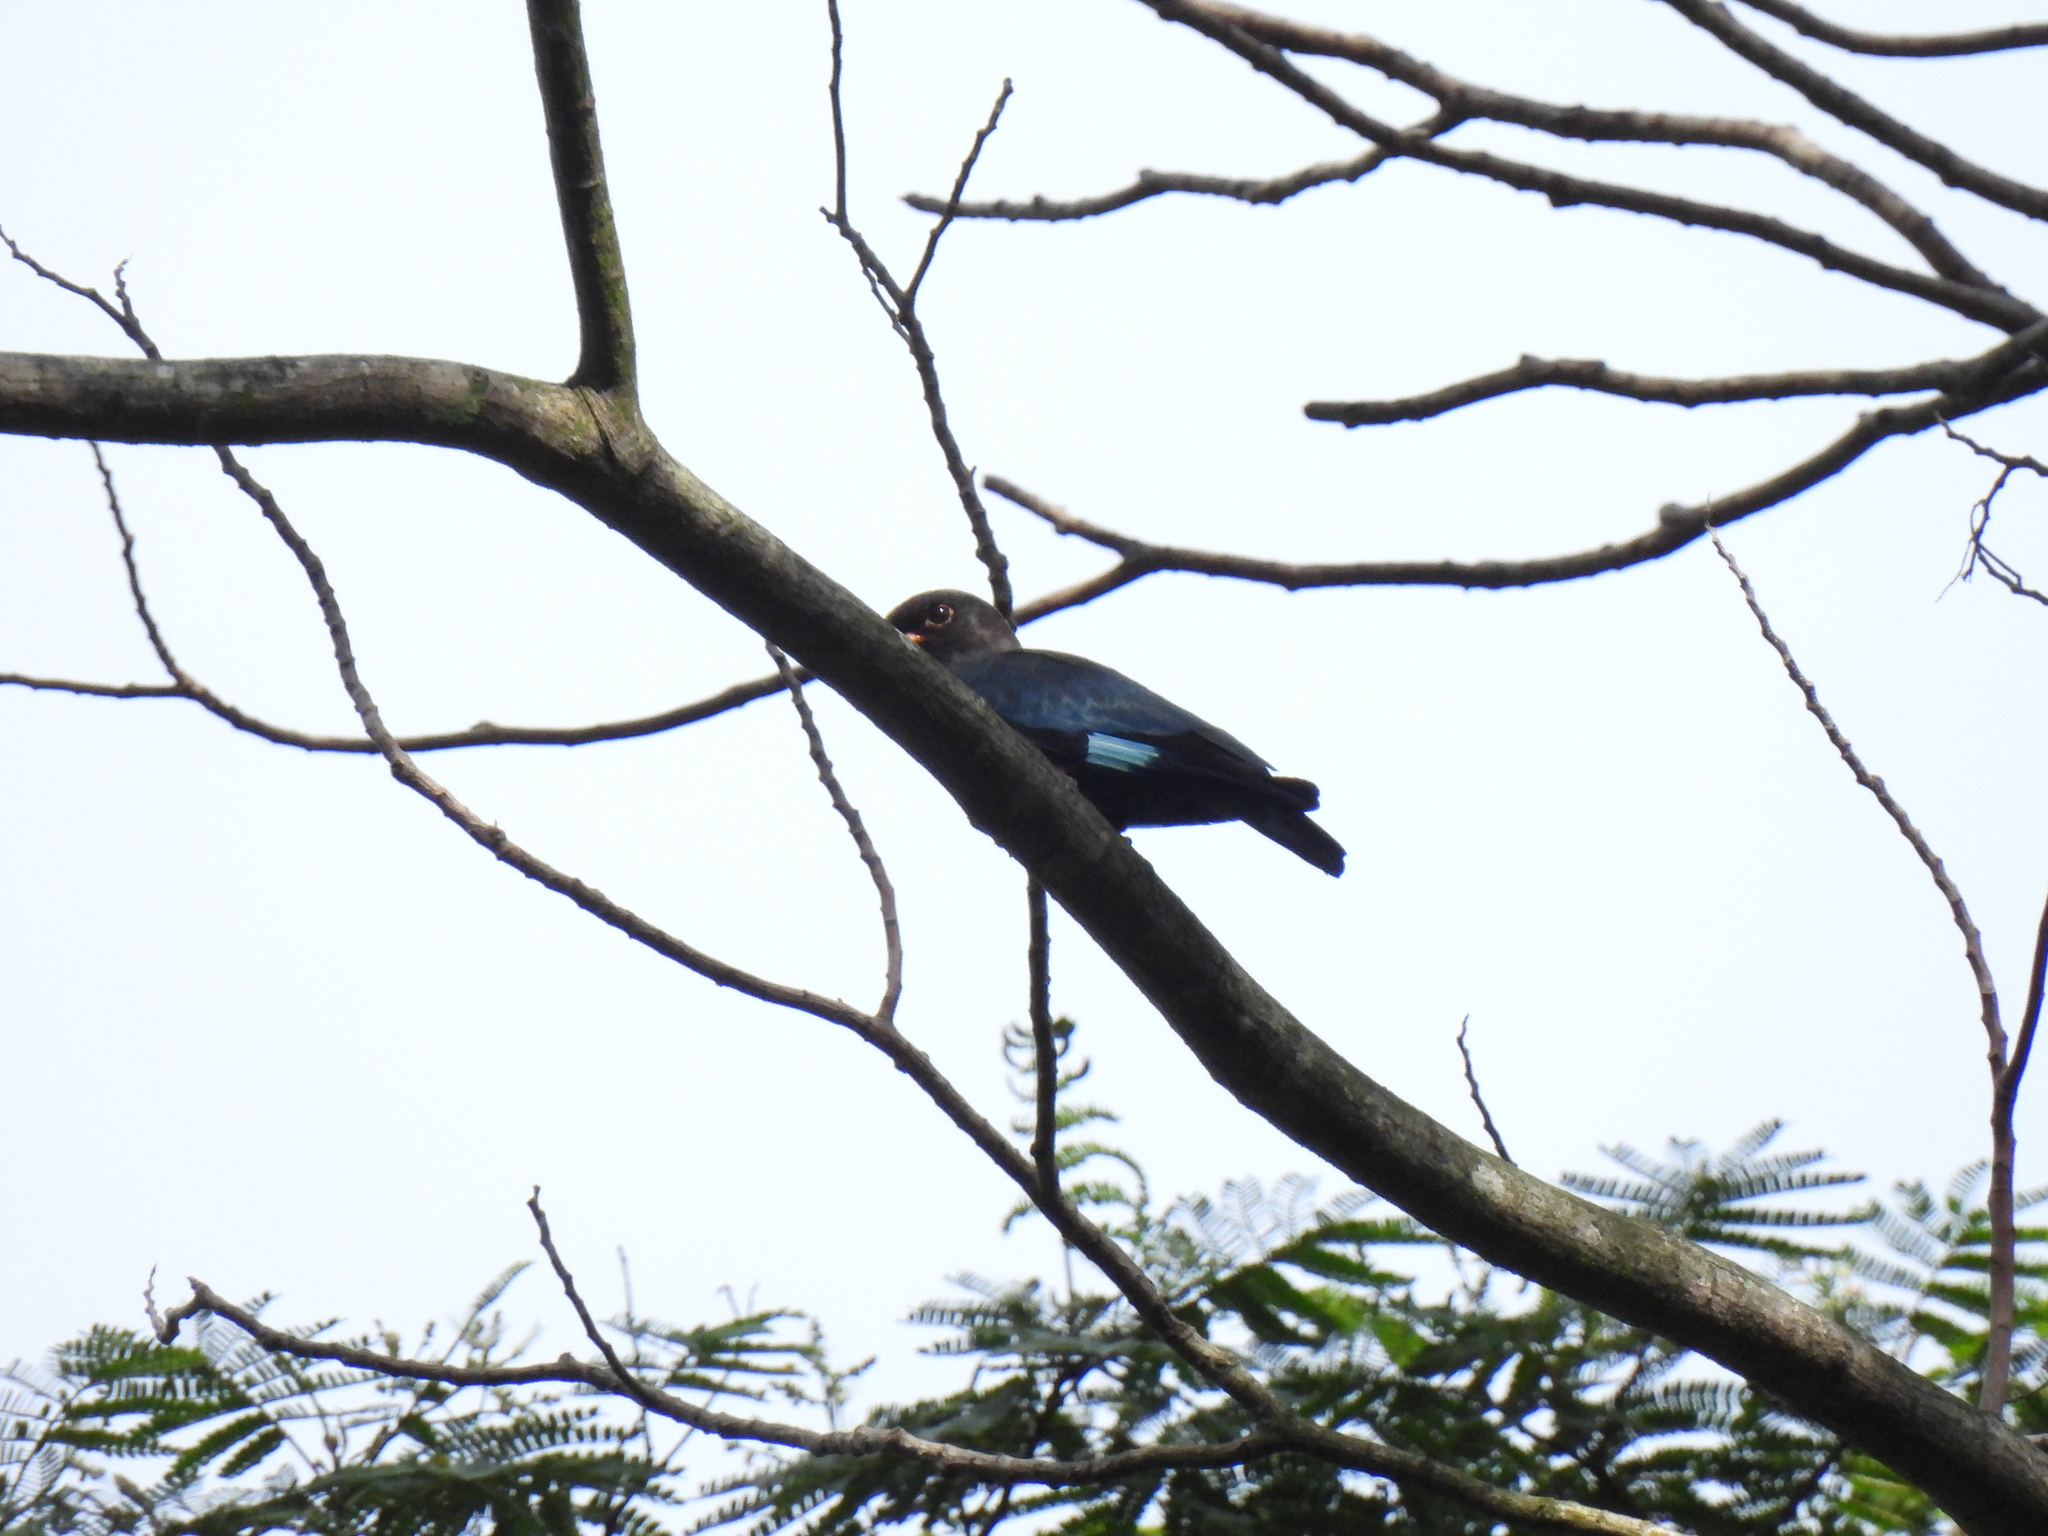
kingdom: Animalia
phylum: Chordata
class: Aves
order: Coraciiformes
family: Coraciidae
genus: Eurystomus
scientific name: Eurystomus orientalis
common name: Oriental dollarbird
